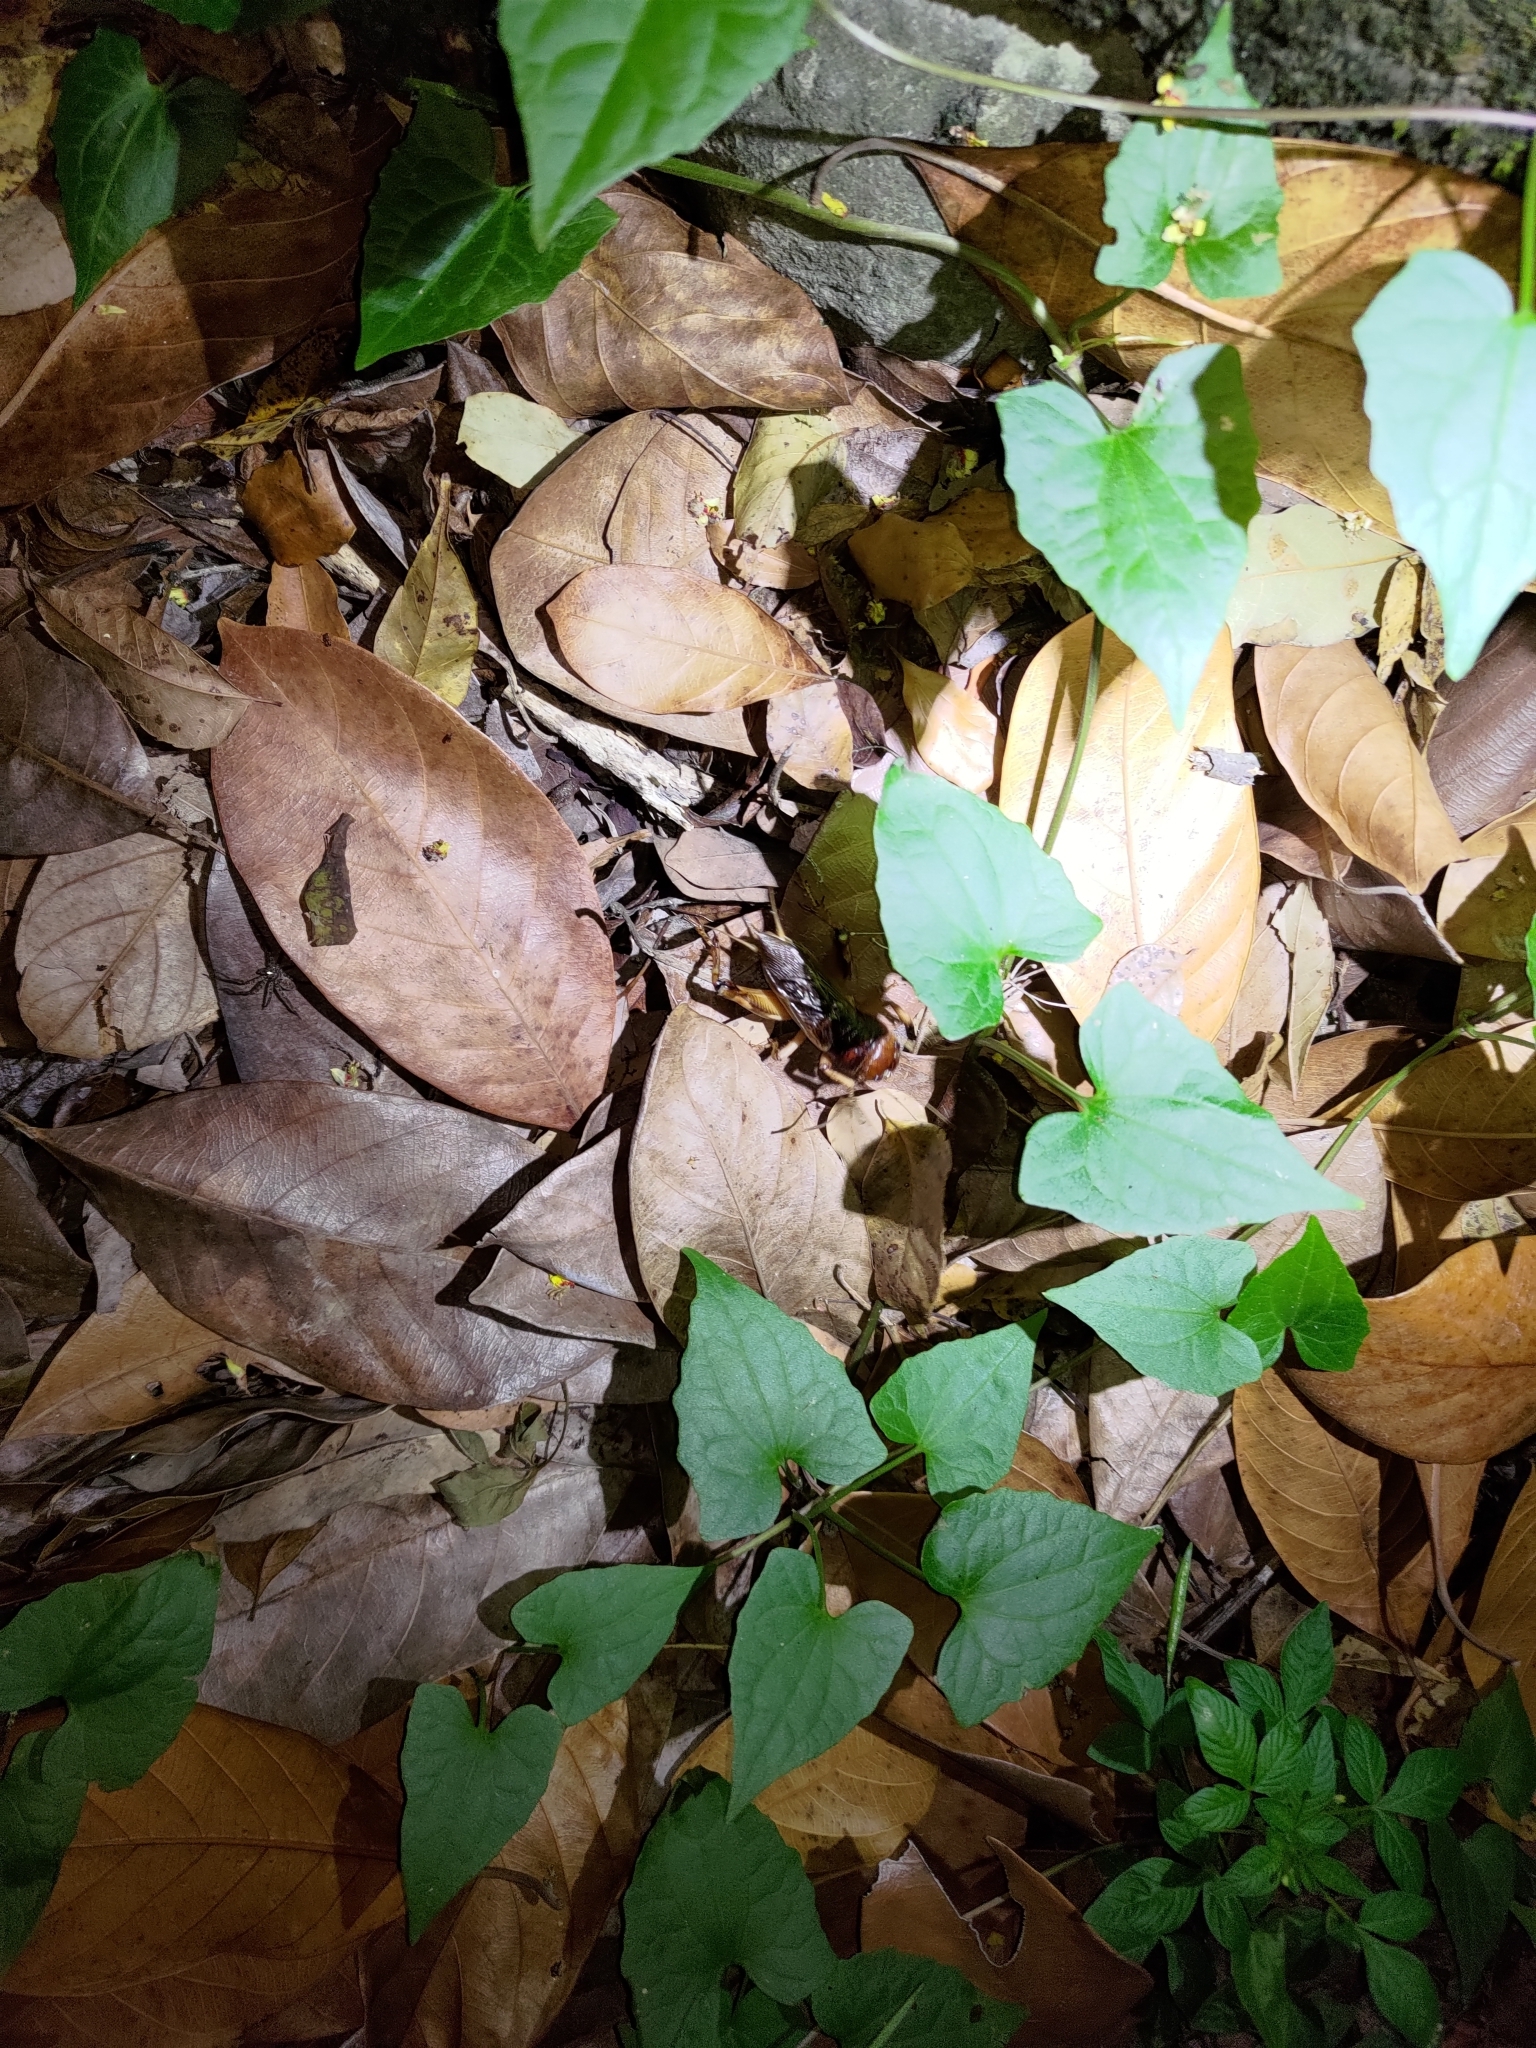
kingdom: Animalia
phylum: Arthropoda
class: Insecta
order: Orthoptera
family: Gryllidae
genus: Tarbinskiellus
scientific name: Tarbinskiellus portentosus
